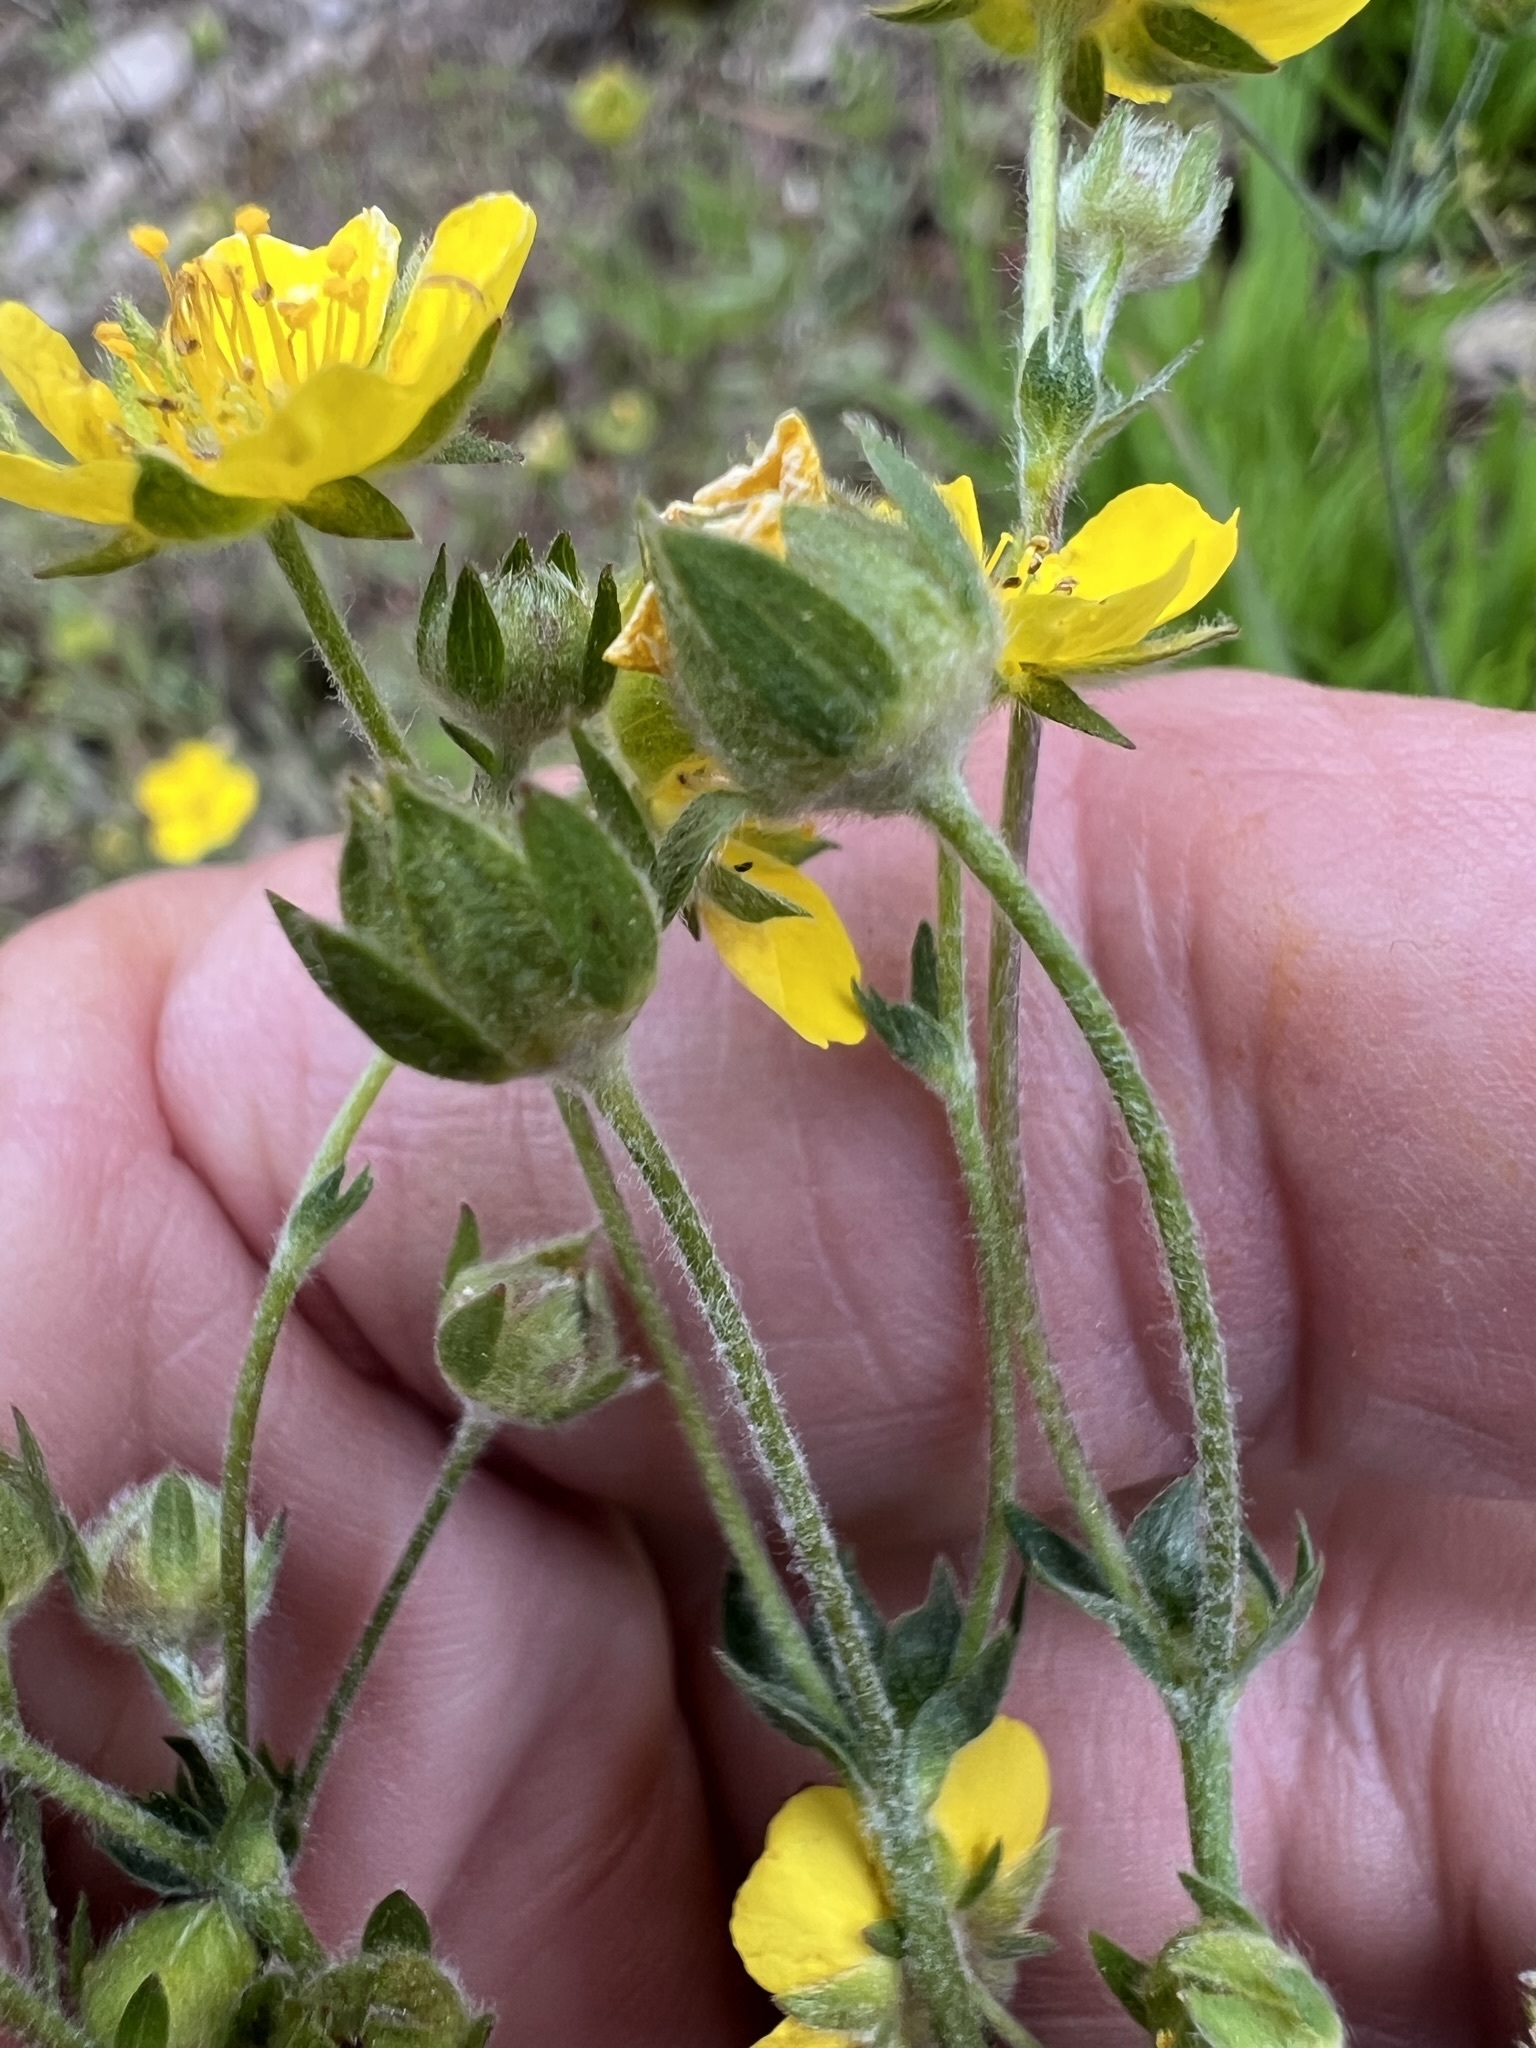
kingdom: Plantae
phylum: Tracheophyta
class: Magnoliopsida
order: Rosales
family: Rosaceae
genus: Potentilla
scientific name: Potentilla breweri
